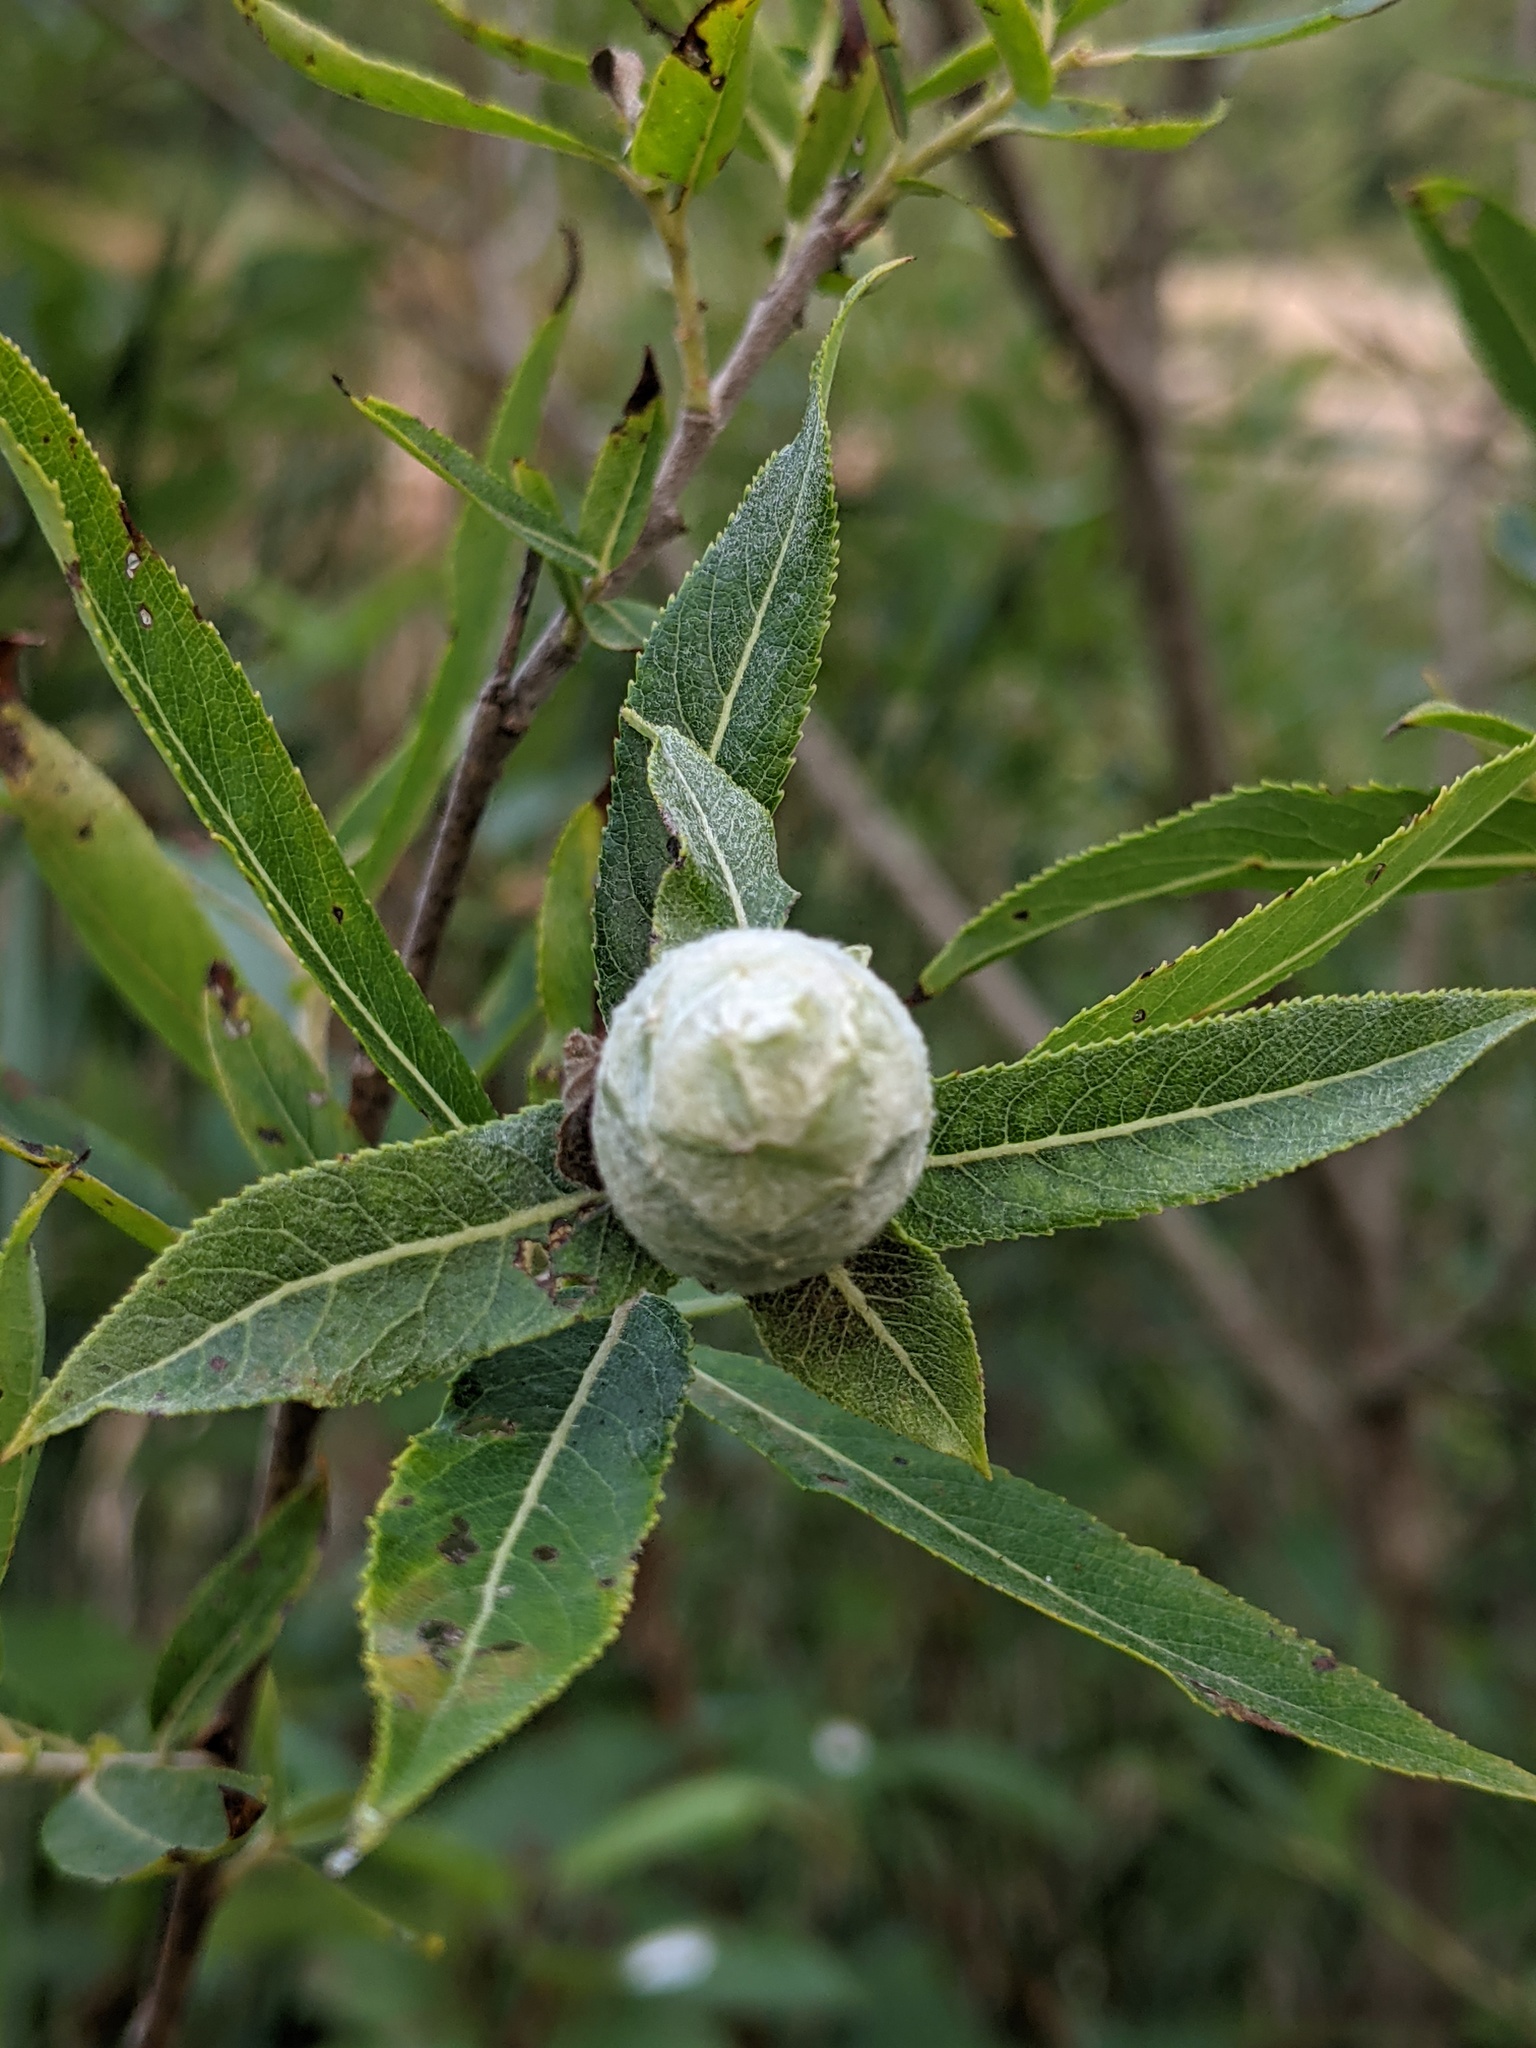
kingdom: Animalia
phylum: Arthropoda
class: Insecta
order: Diptera
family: Cecidomyiidae
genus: Rabdophaga
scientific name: Rabdophaga strobiloides
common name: Willow pinecone gall midge
